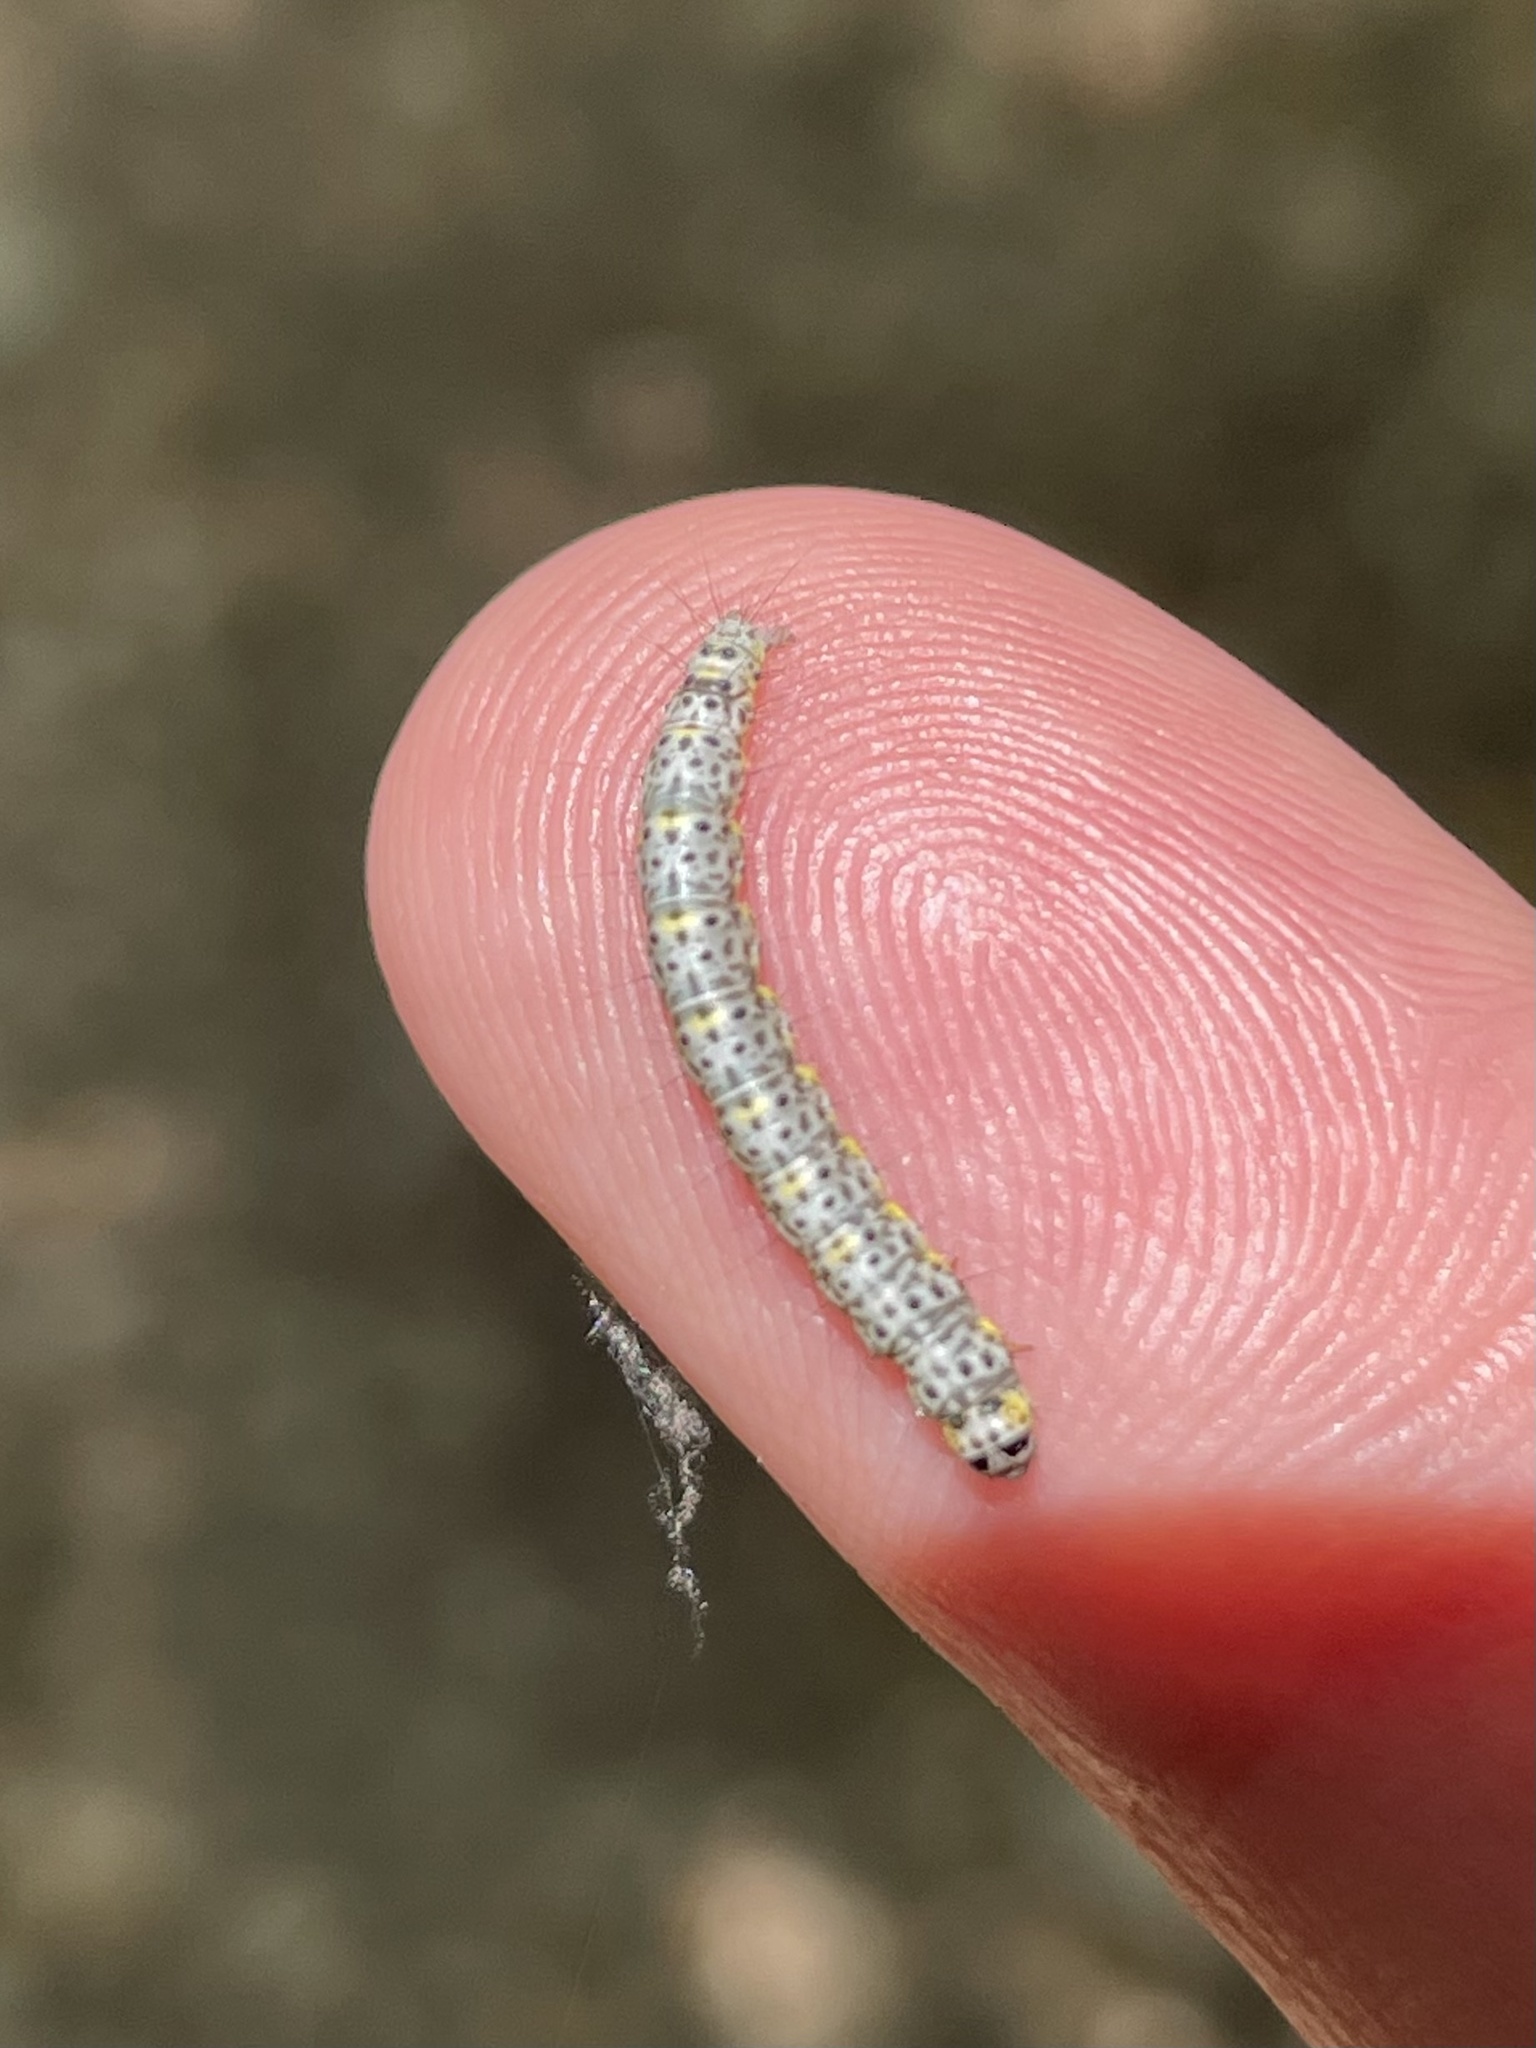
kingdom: Animalia
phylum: Arthropoda
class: Insecta
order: Lepidoptera
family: Geometridae
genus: Isturgia
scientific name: Isturgia dislocaria
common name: Pale-viened enconista
